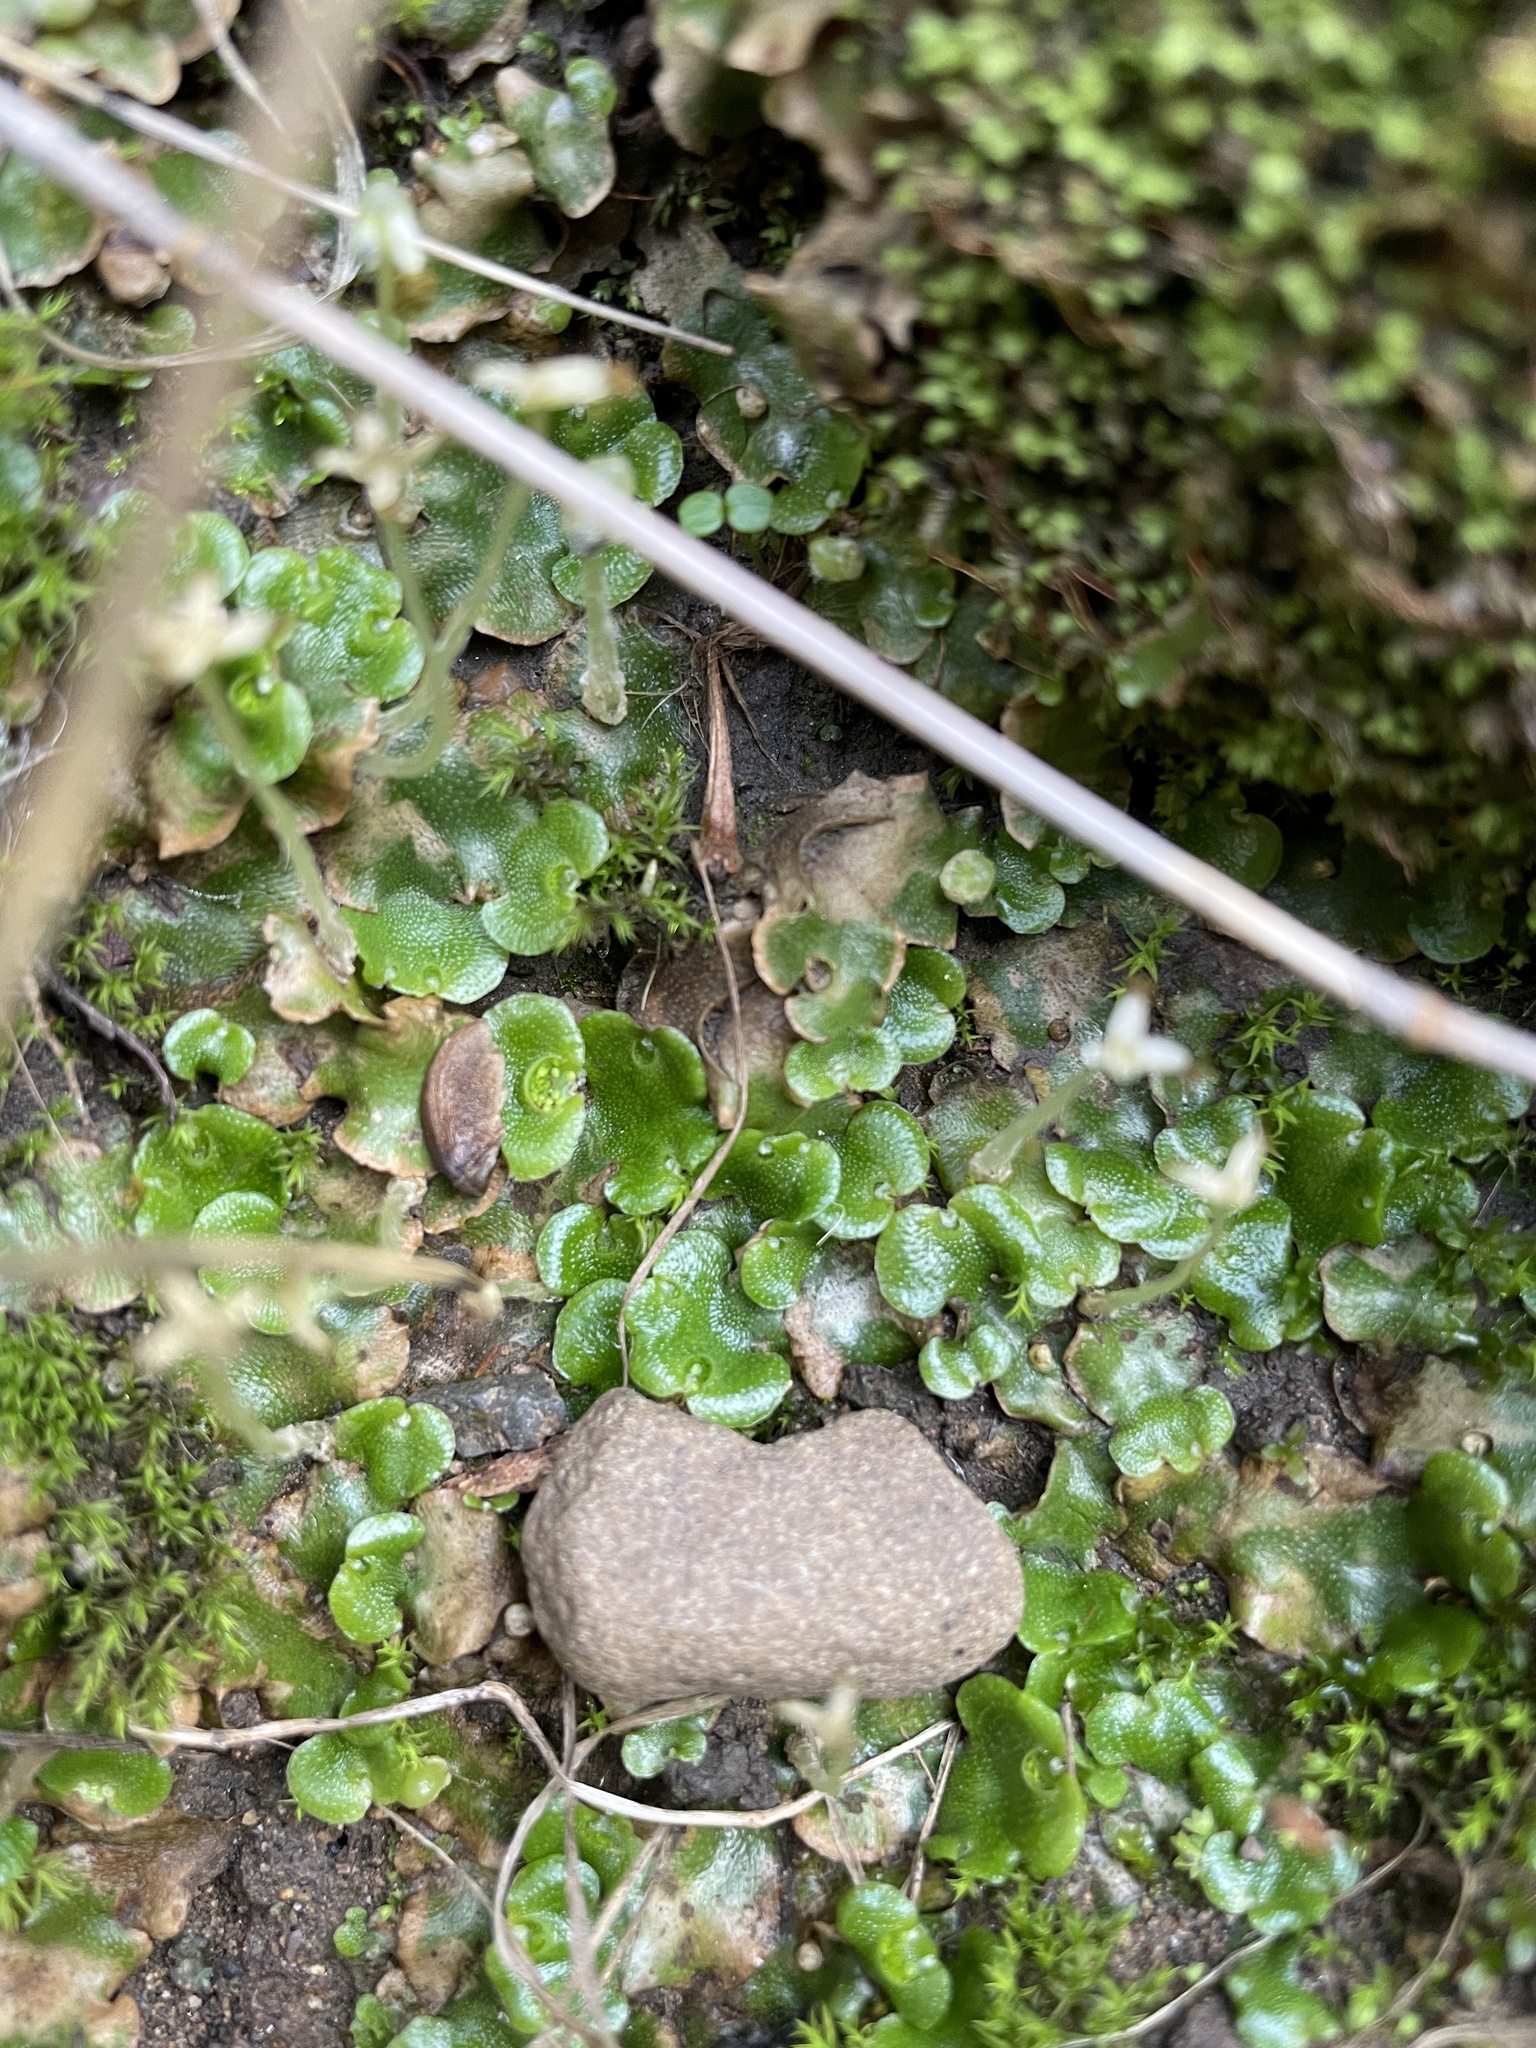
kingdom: Plantae
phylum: Marchantiophyta
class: Marchantiopsida
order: Lunulariales
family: Lunulariaceae
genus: Lunularia
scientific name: Lunularia cruciata
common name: Crescent-cup liverwort
